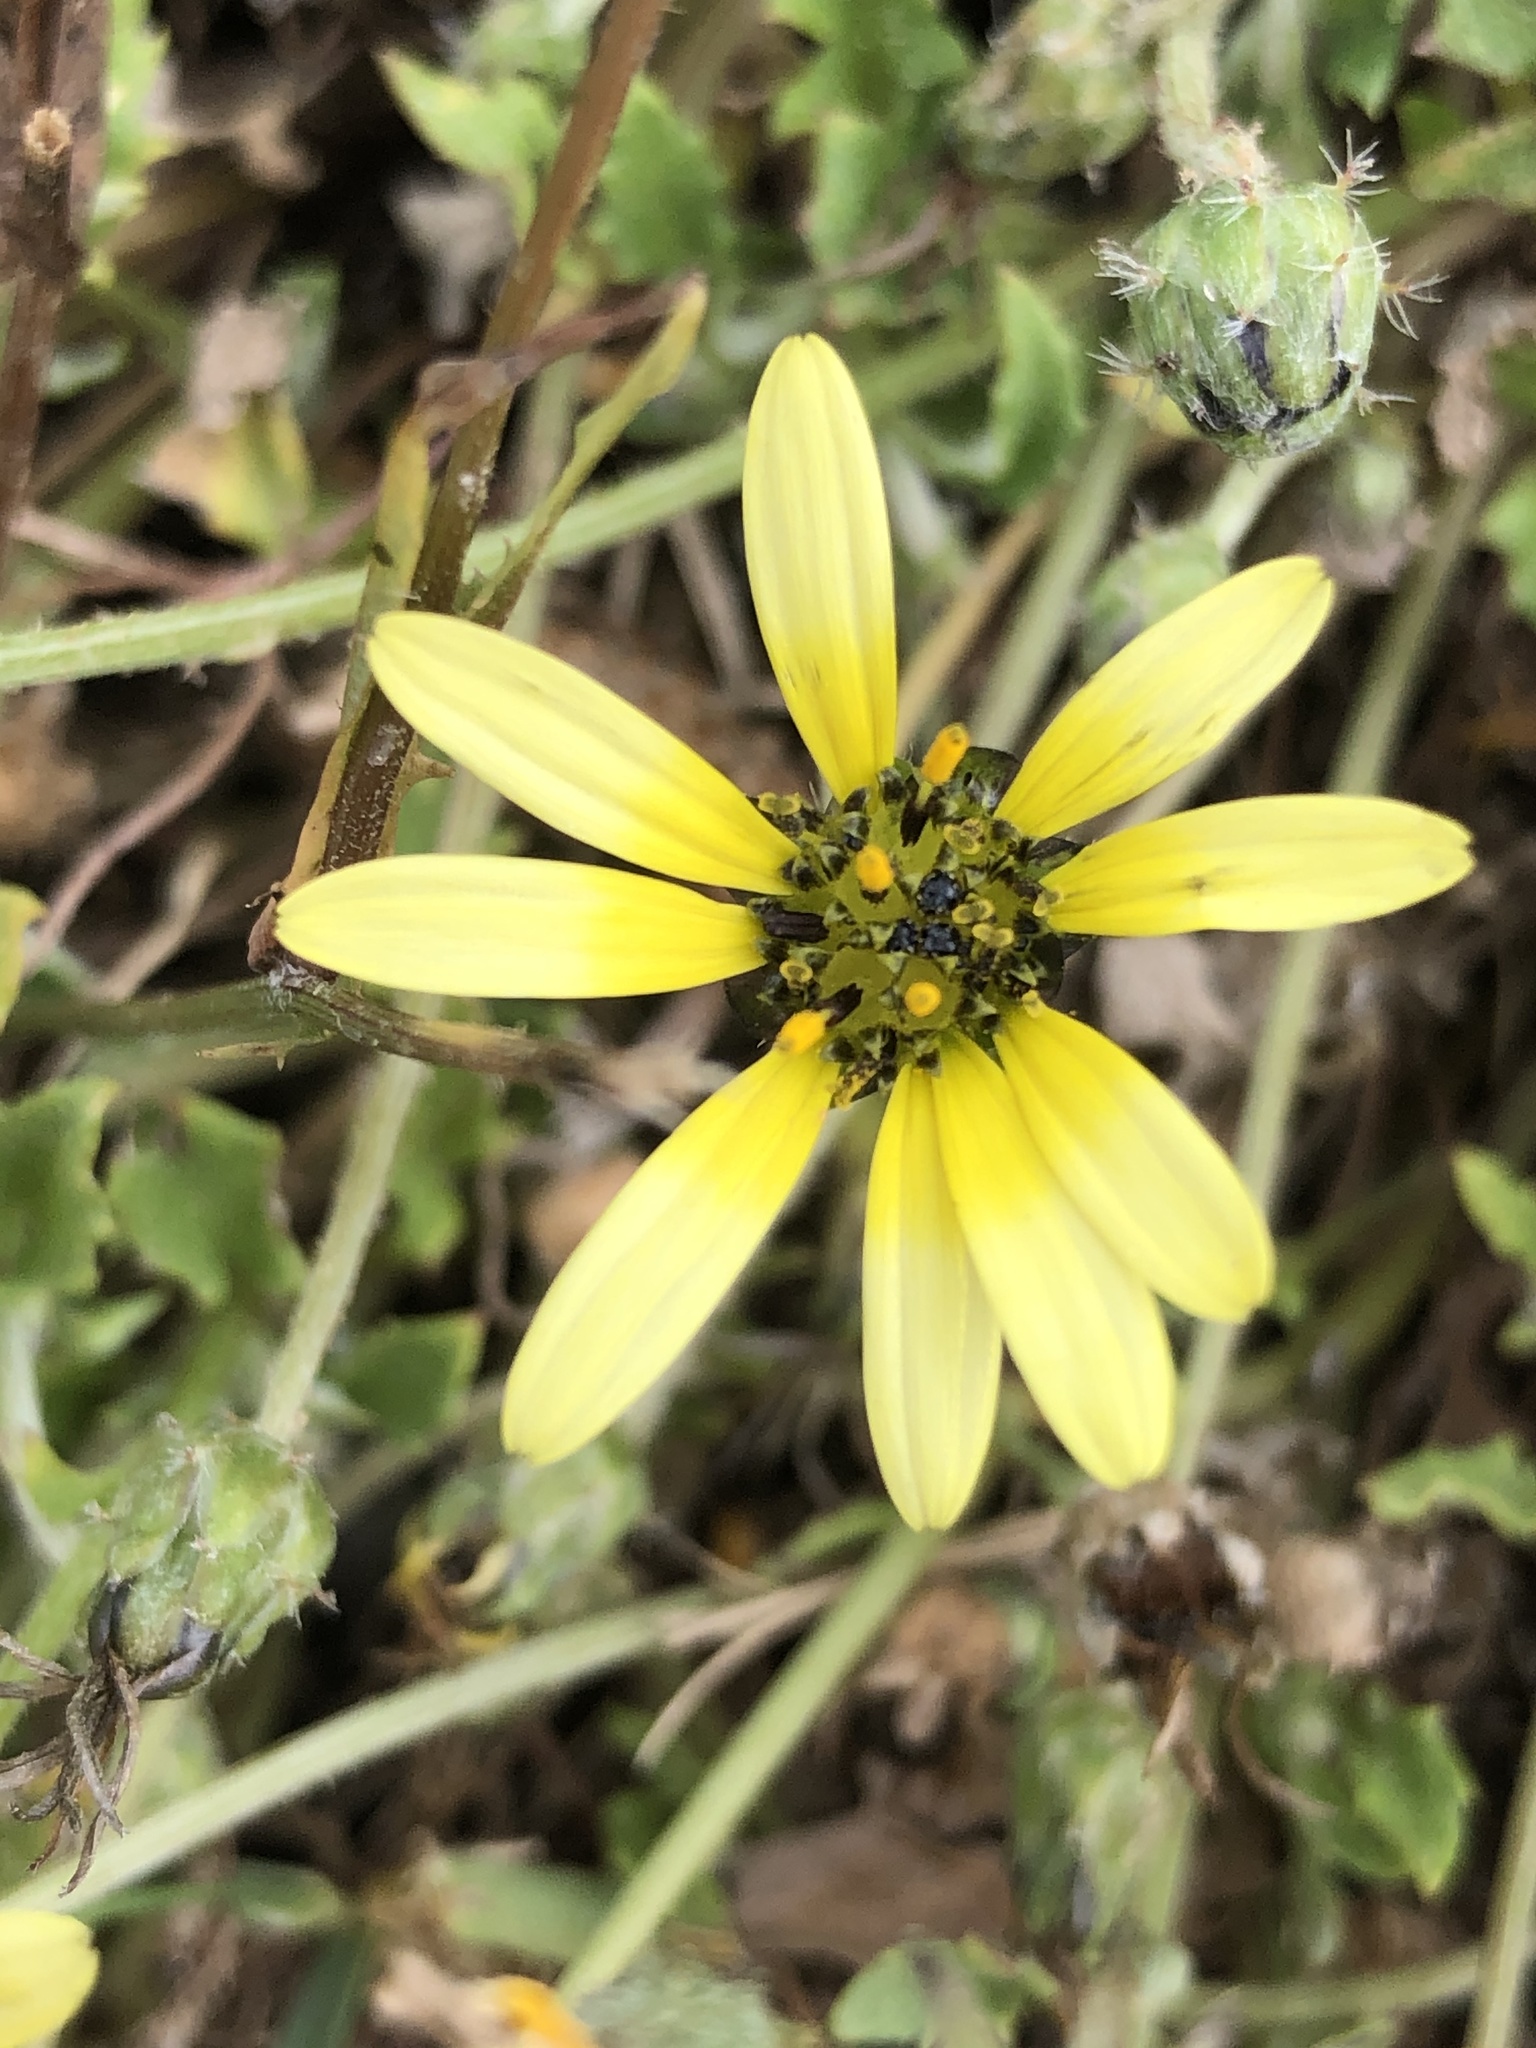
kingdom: Plantae
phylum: Tracheophyta
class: Magnoliopsida
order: Asterales
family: Asteraceae
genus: Arctotheca
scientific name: Arctotheca calendula
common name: Capeweed
